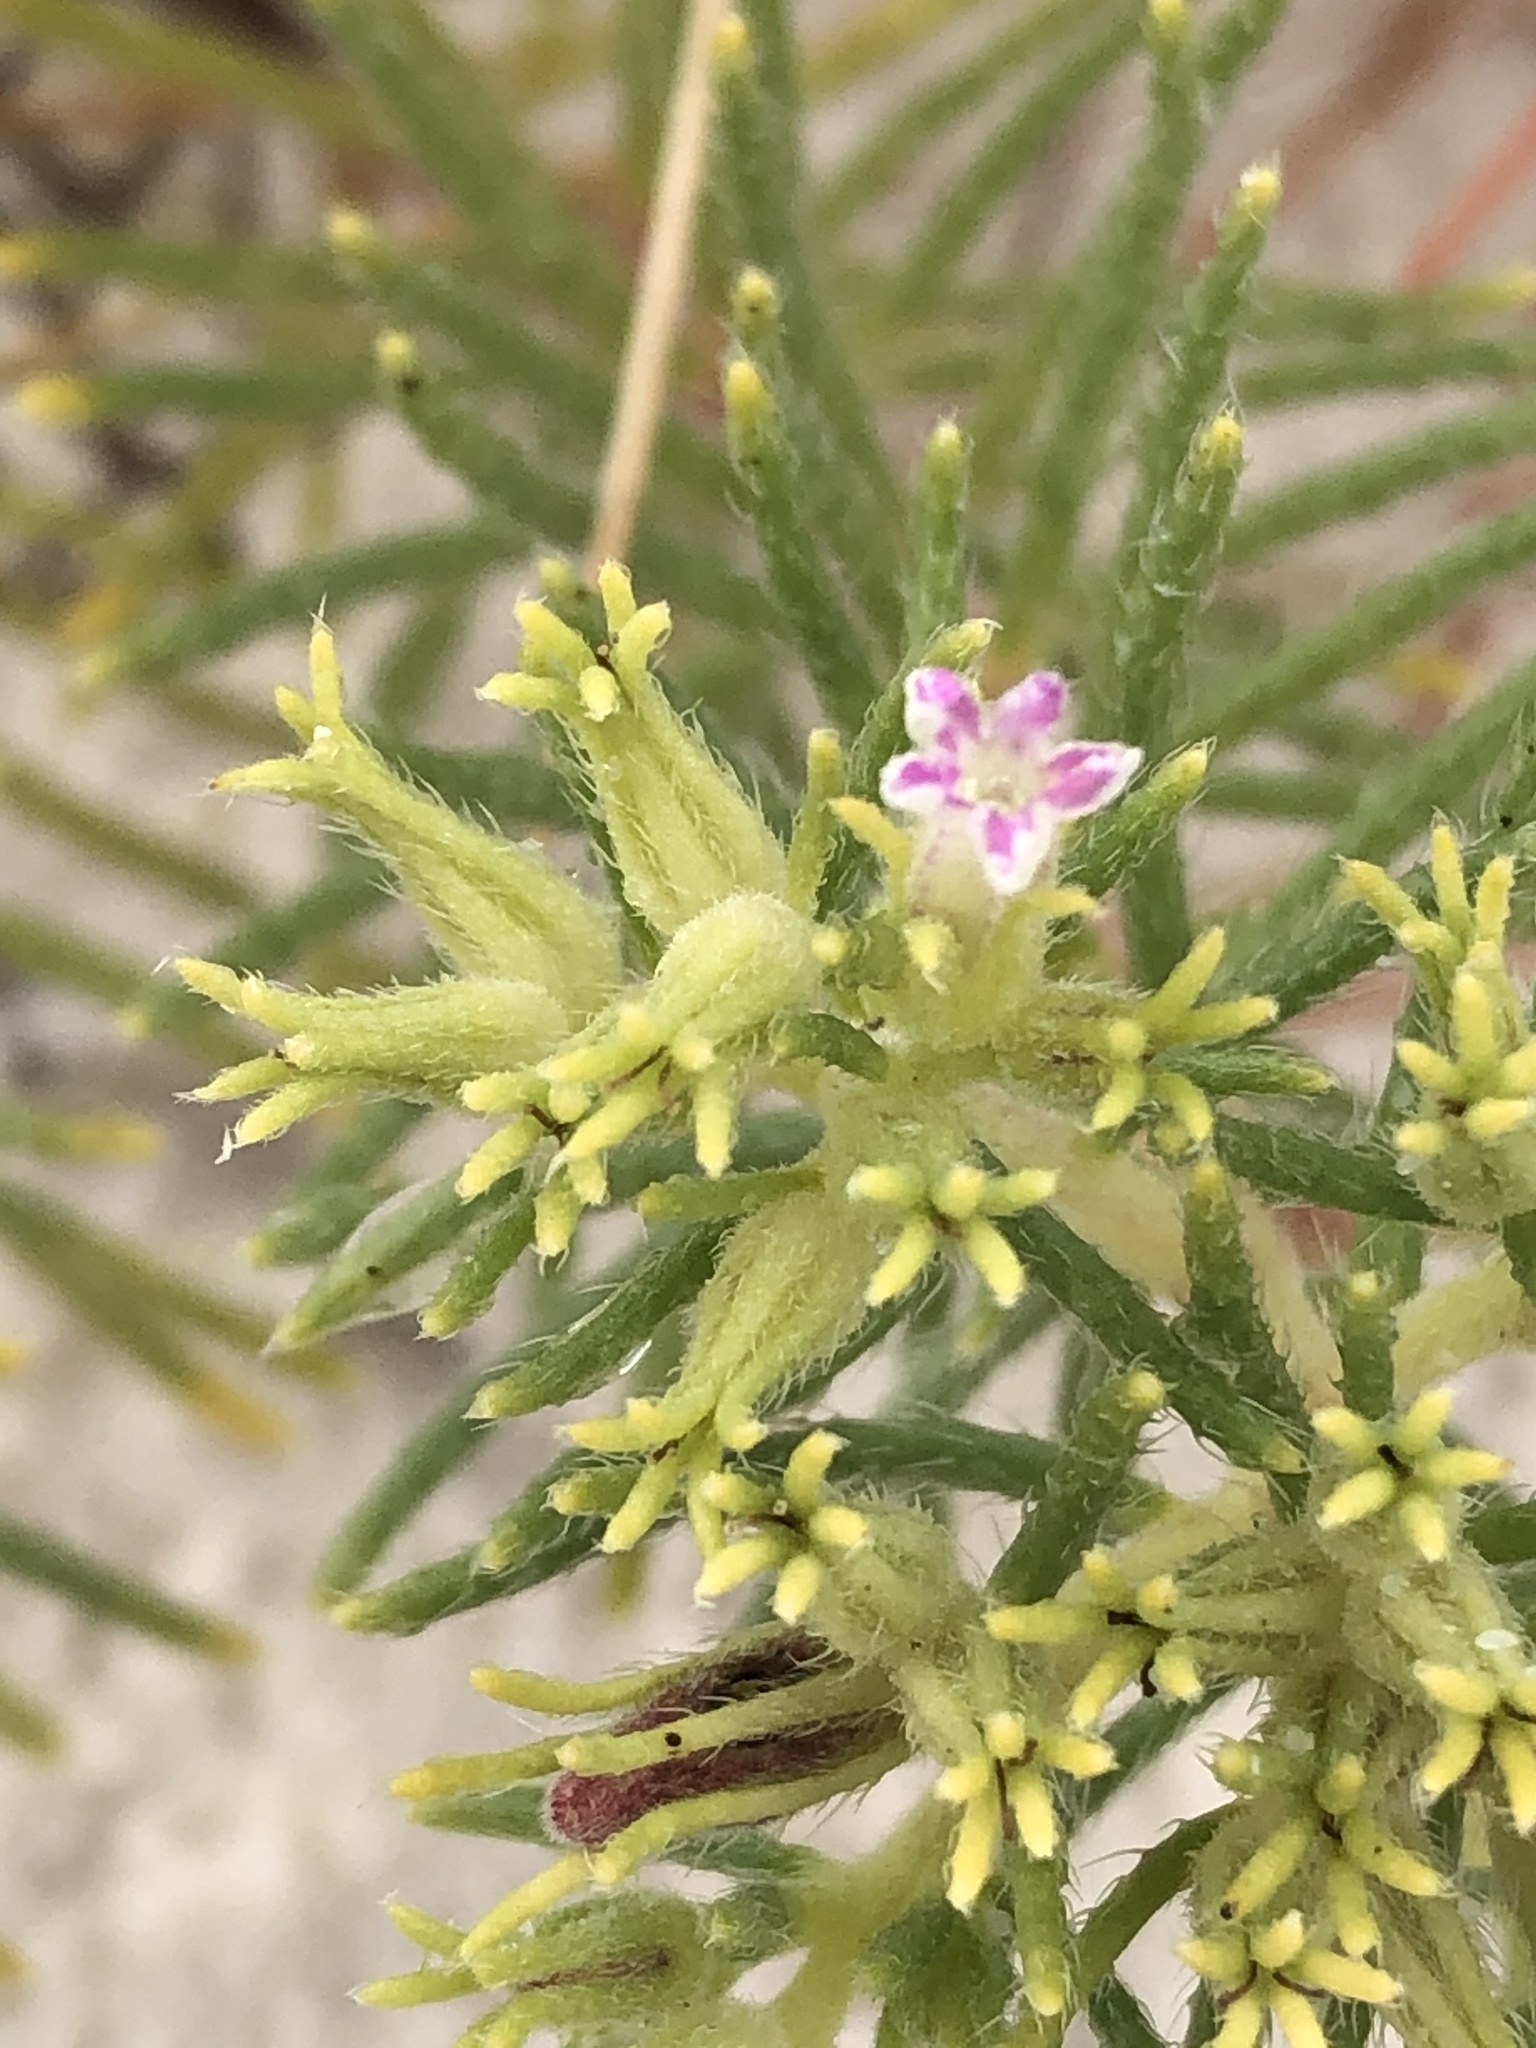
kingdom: Plantae
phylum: Tracheophyta
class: Magnoliopsida
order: Boraginales
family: Namaceae
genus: Andropus
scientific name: Andropus carnosus
